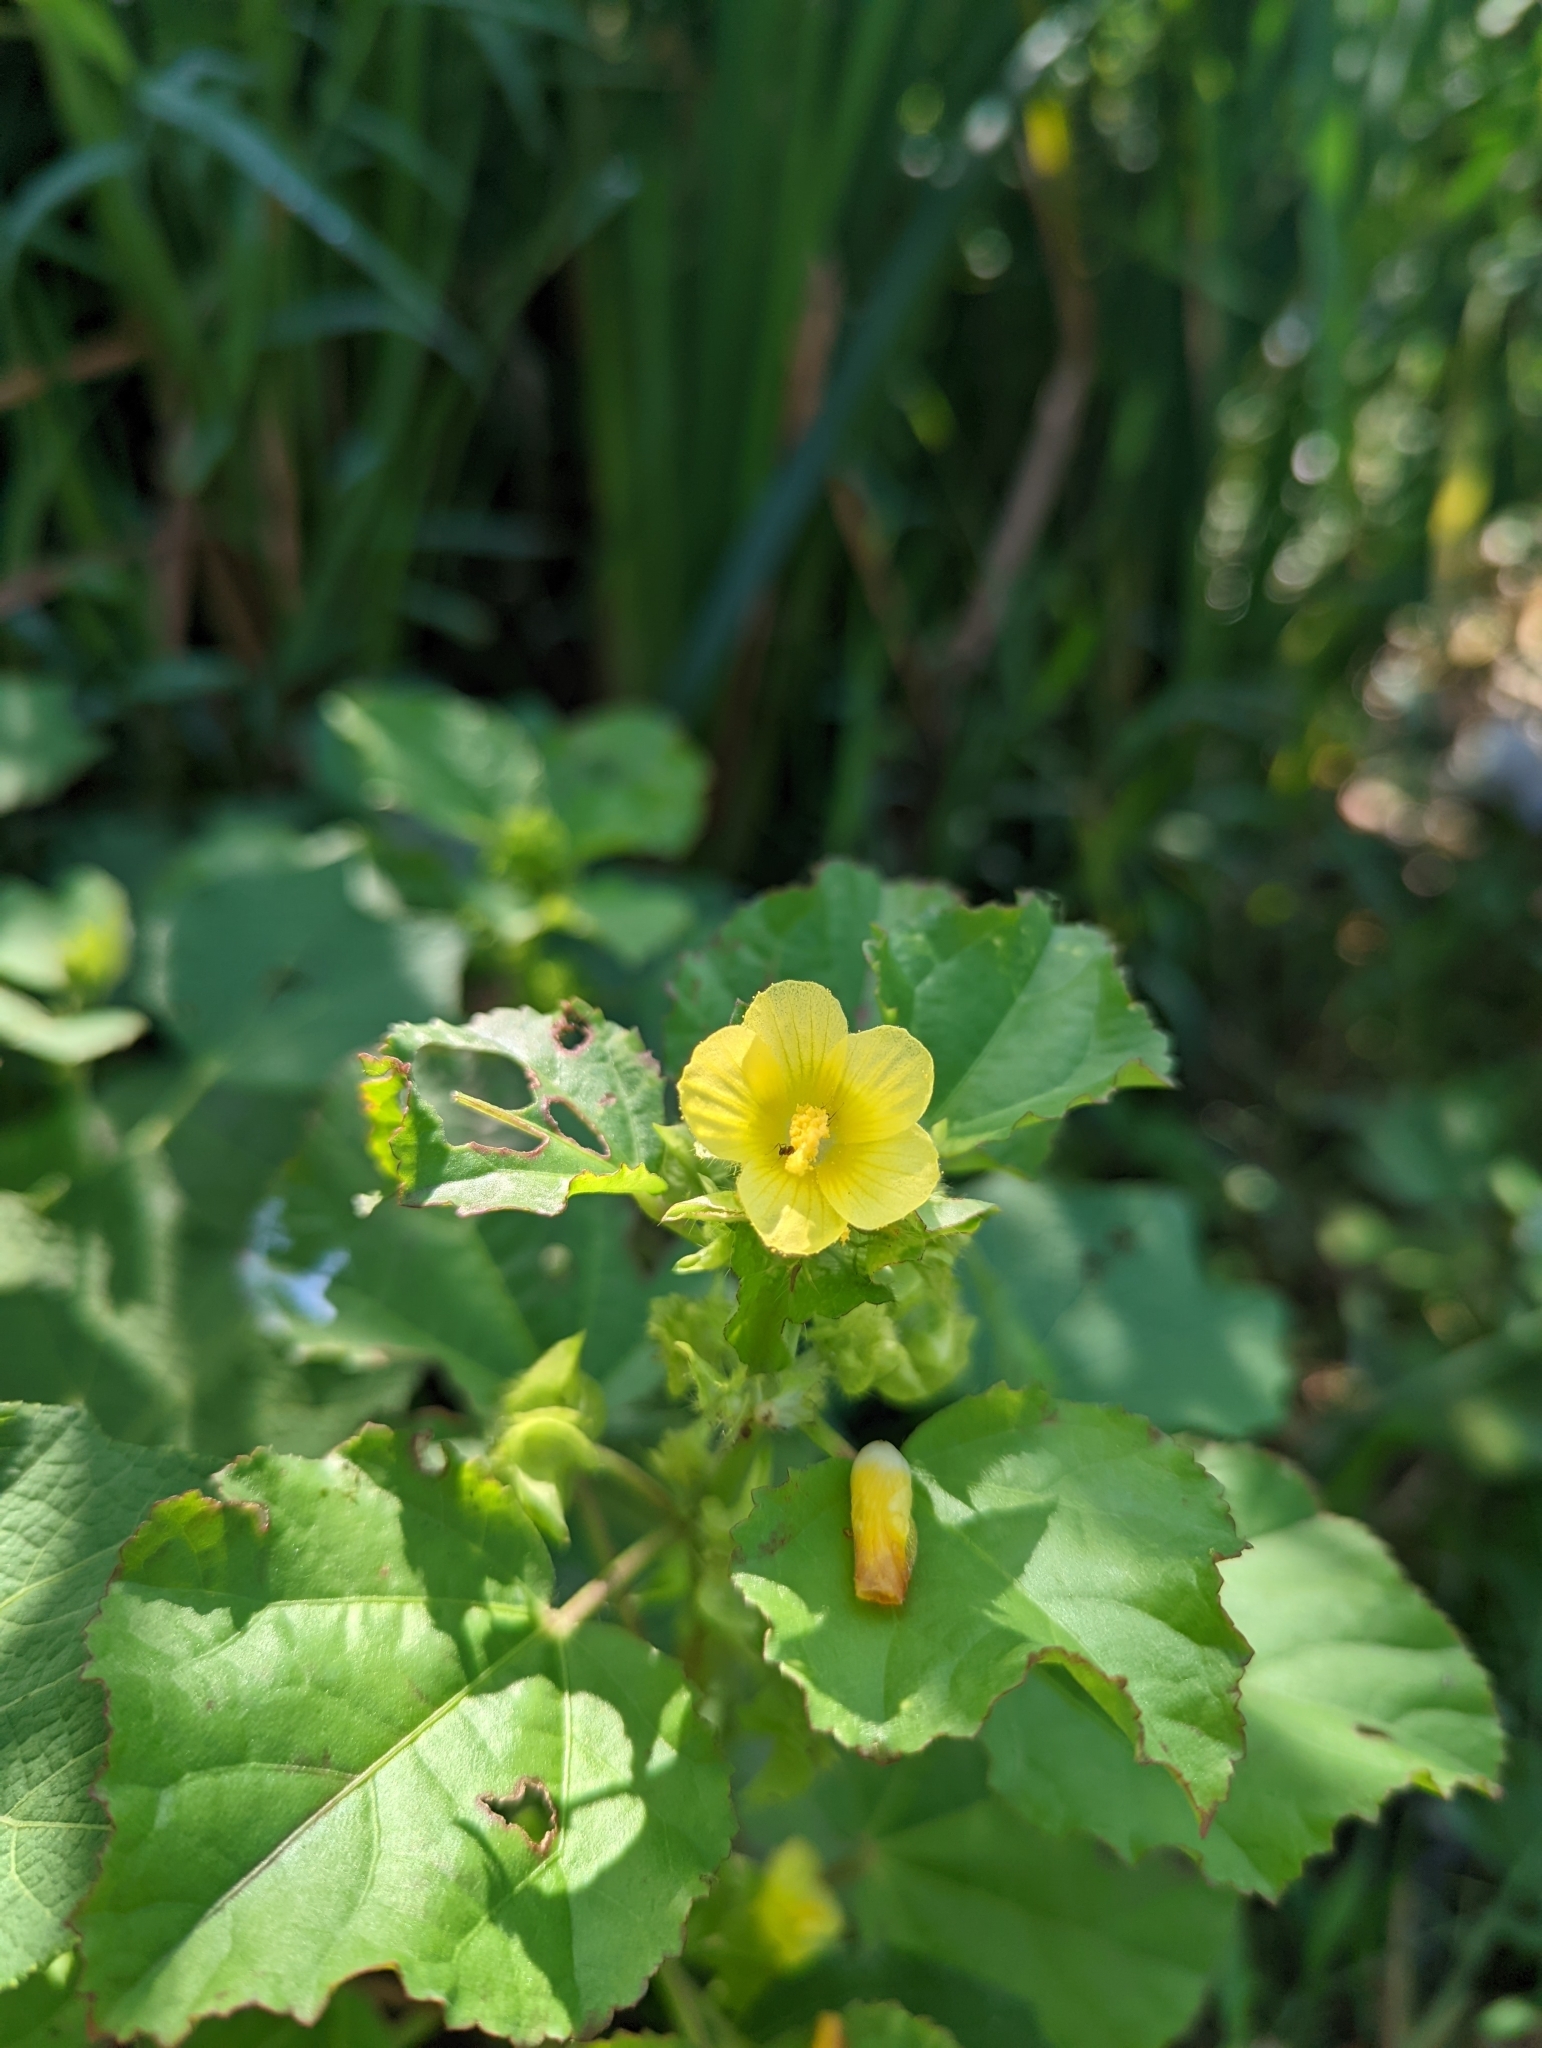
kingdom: Plantae
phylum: Tracheophyta
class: Magnoliopsida
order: Malvales
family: Malvaceae
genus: Urena
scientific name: Urena lobata
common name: Caesarweed
